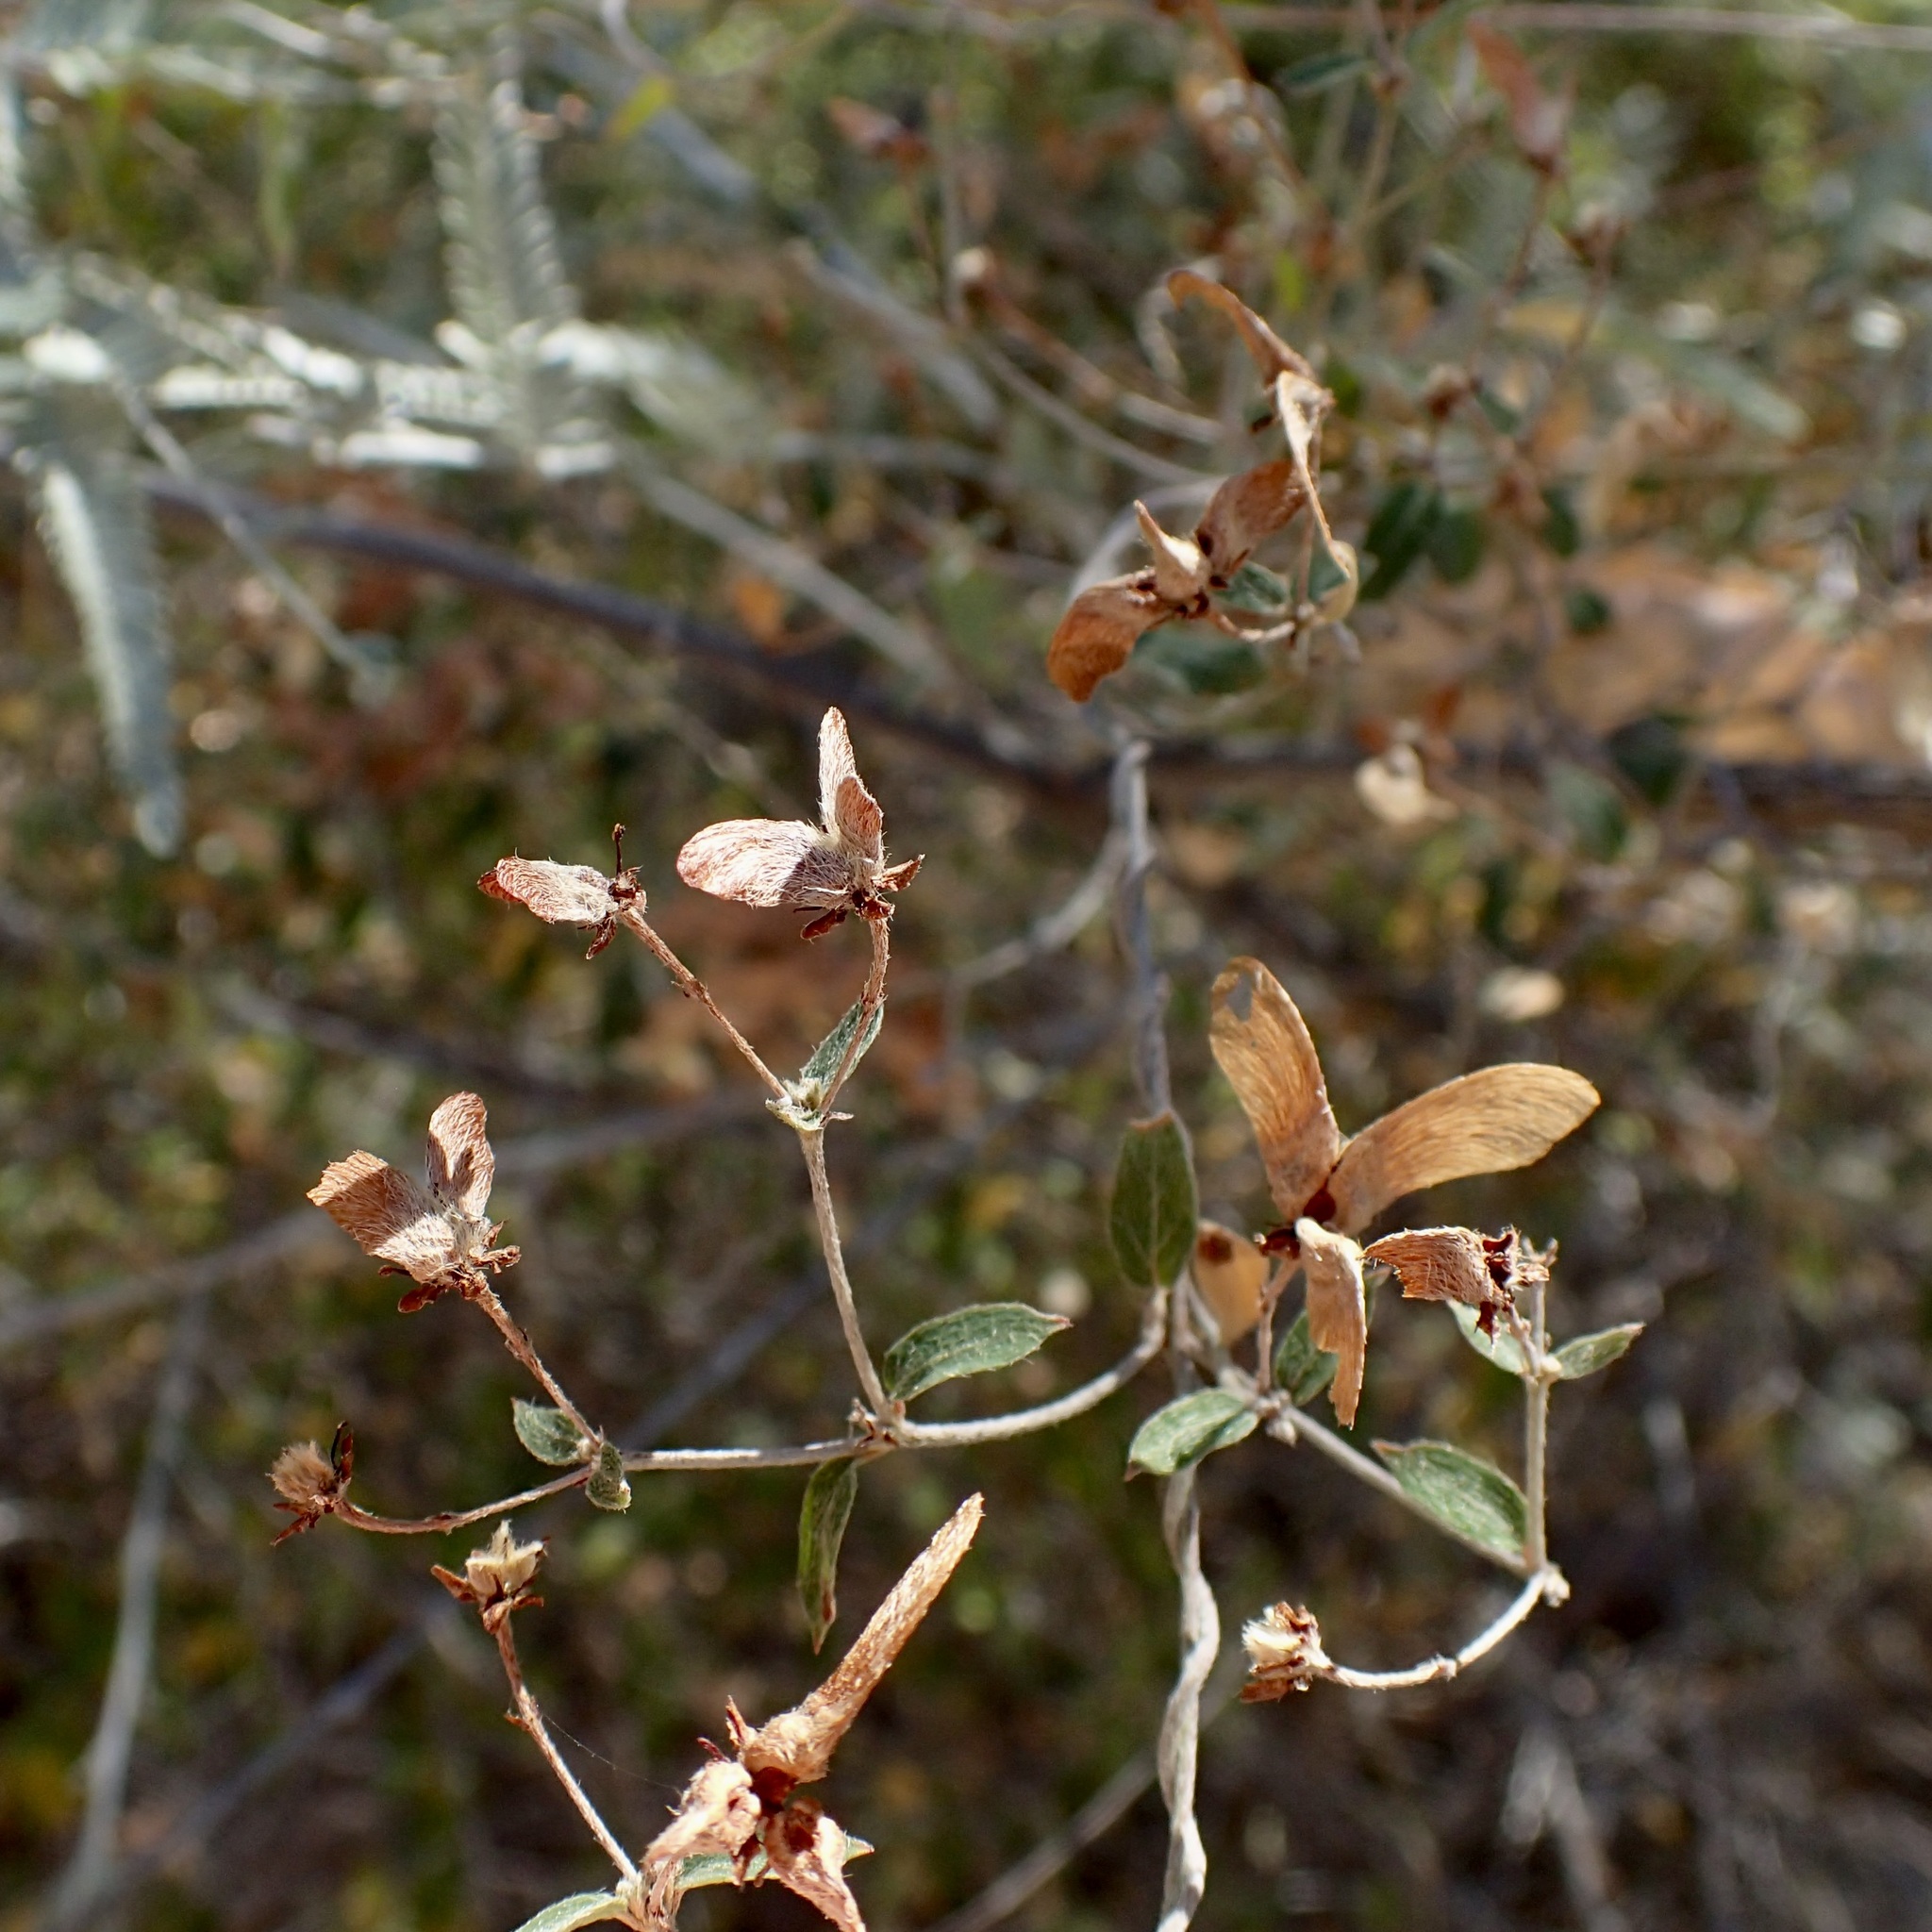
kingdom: Plantae
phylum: Tracheophyta
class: Magnoliopsida
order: Malpighiales
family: Malpighiaceae
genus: Cottsia
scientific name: Cottsia californica
